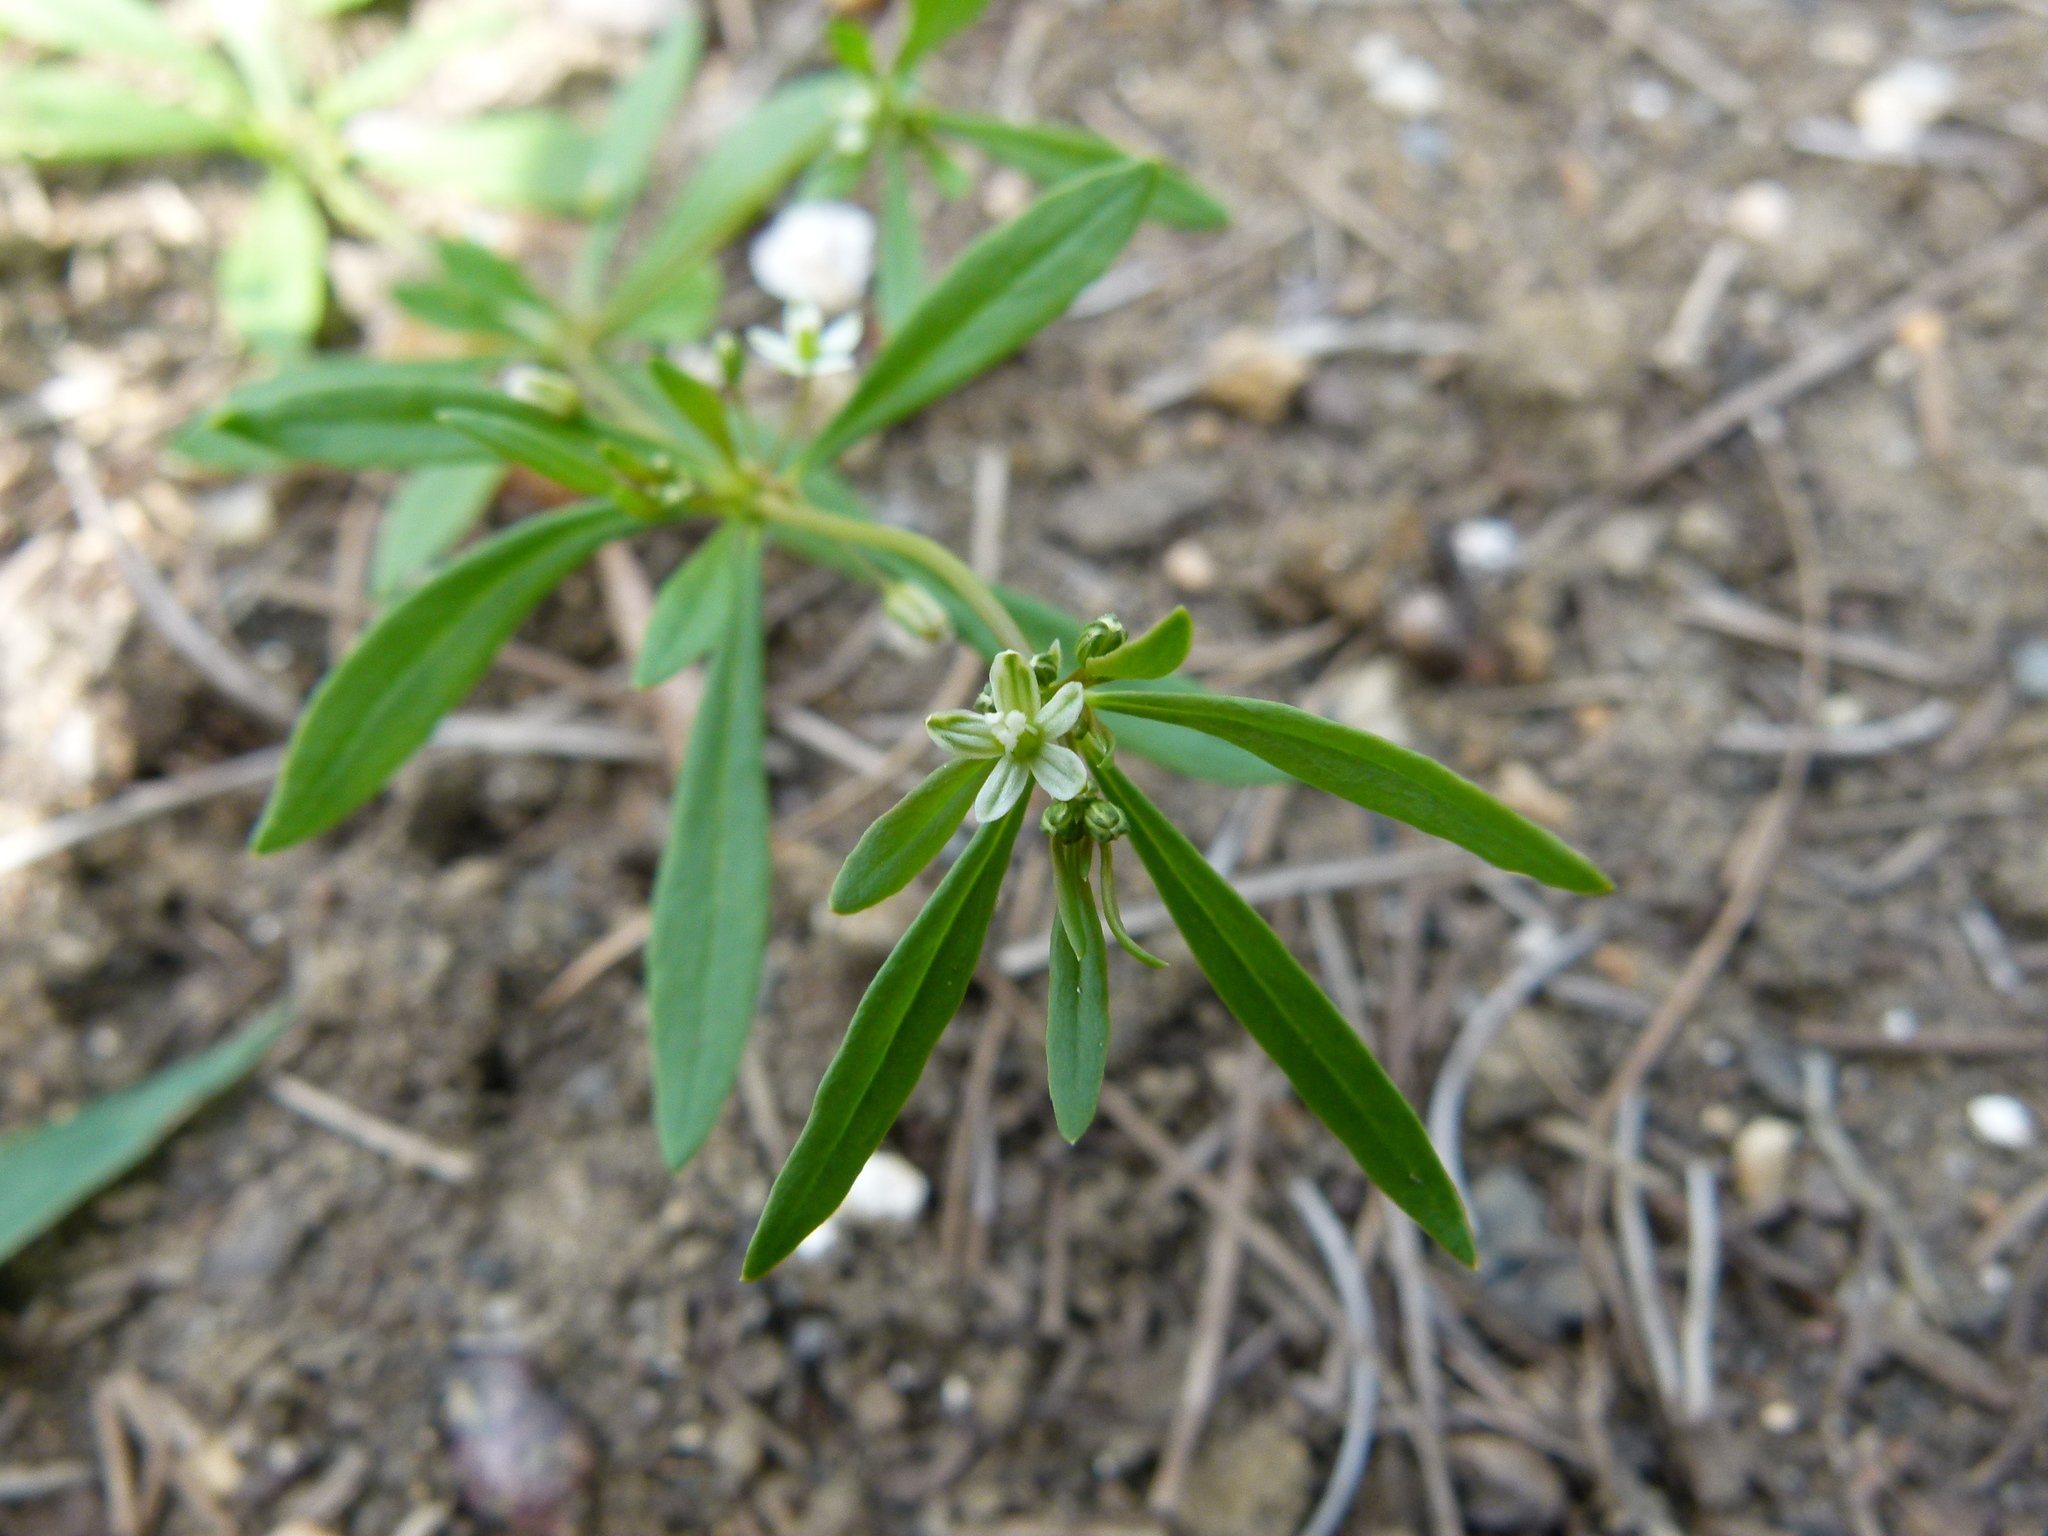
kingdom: Plantae
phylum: Tracheophyta
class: Magnoliopsida
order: Caryophyllales
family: Molluginaceae
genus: Mollugo
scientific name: Mollugo verticillata
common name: Green carpetweed
